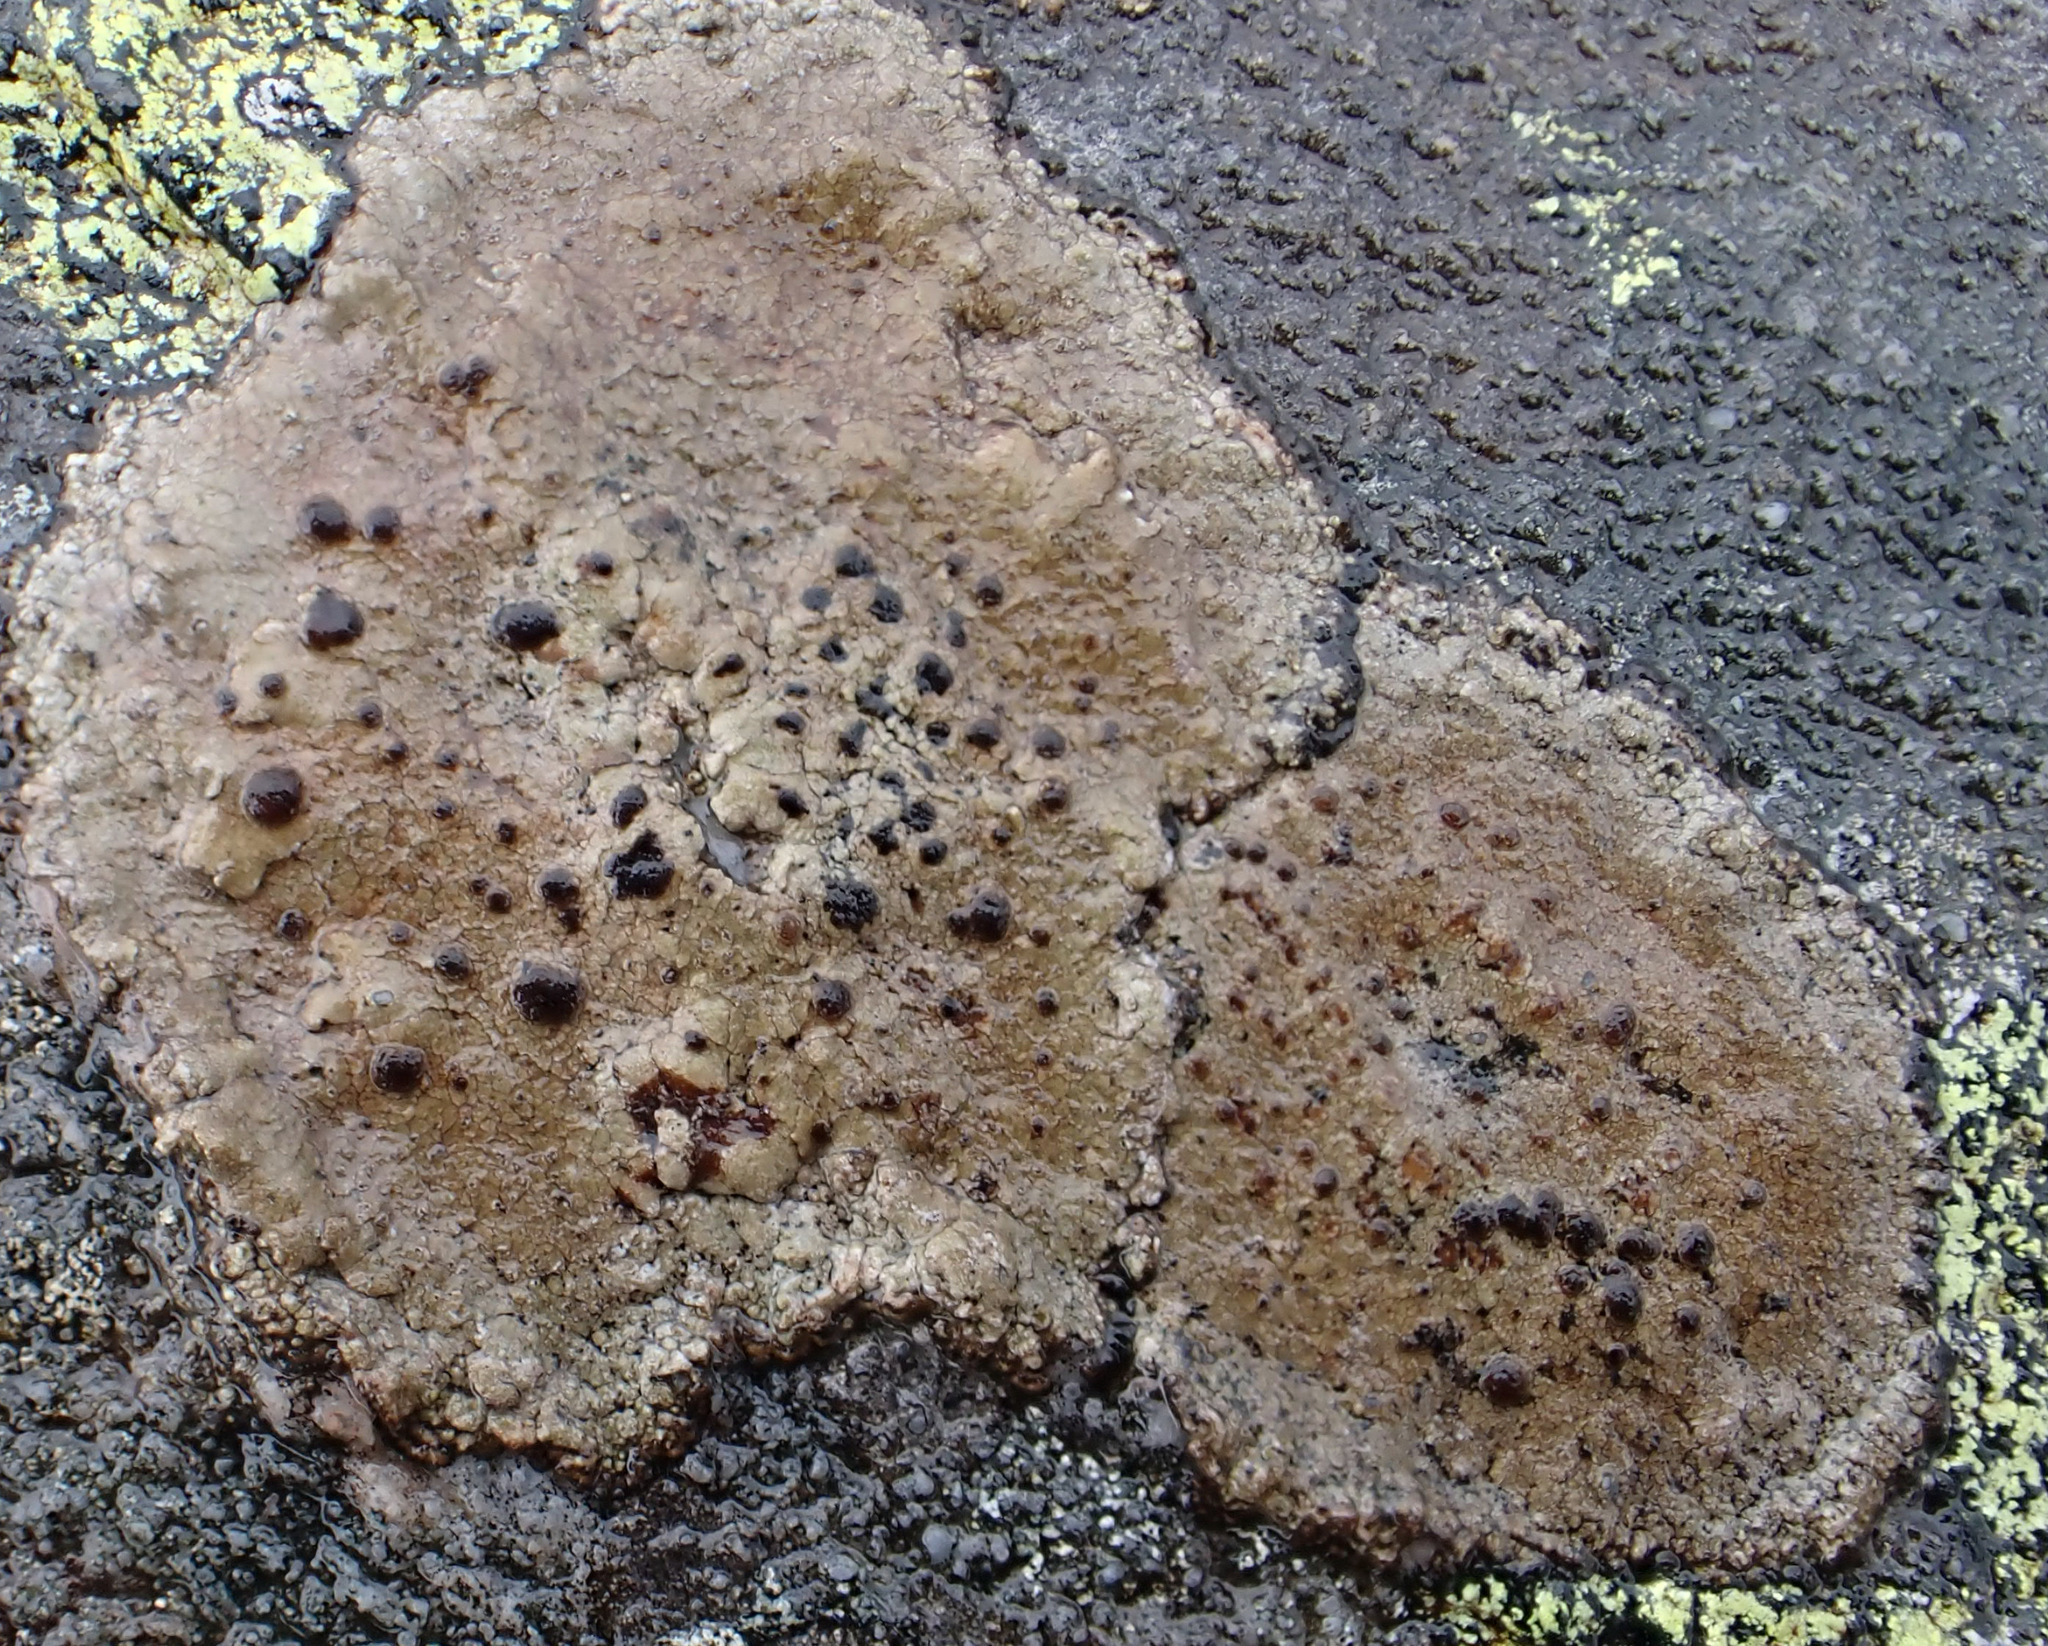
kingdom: Fungi
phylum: Ascomycota
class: Lecanoromycetes
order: Umbilicariales
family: Fuscideaceae
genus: Fuscidea
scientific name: Fuscidea cyathoides
